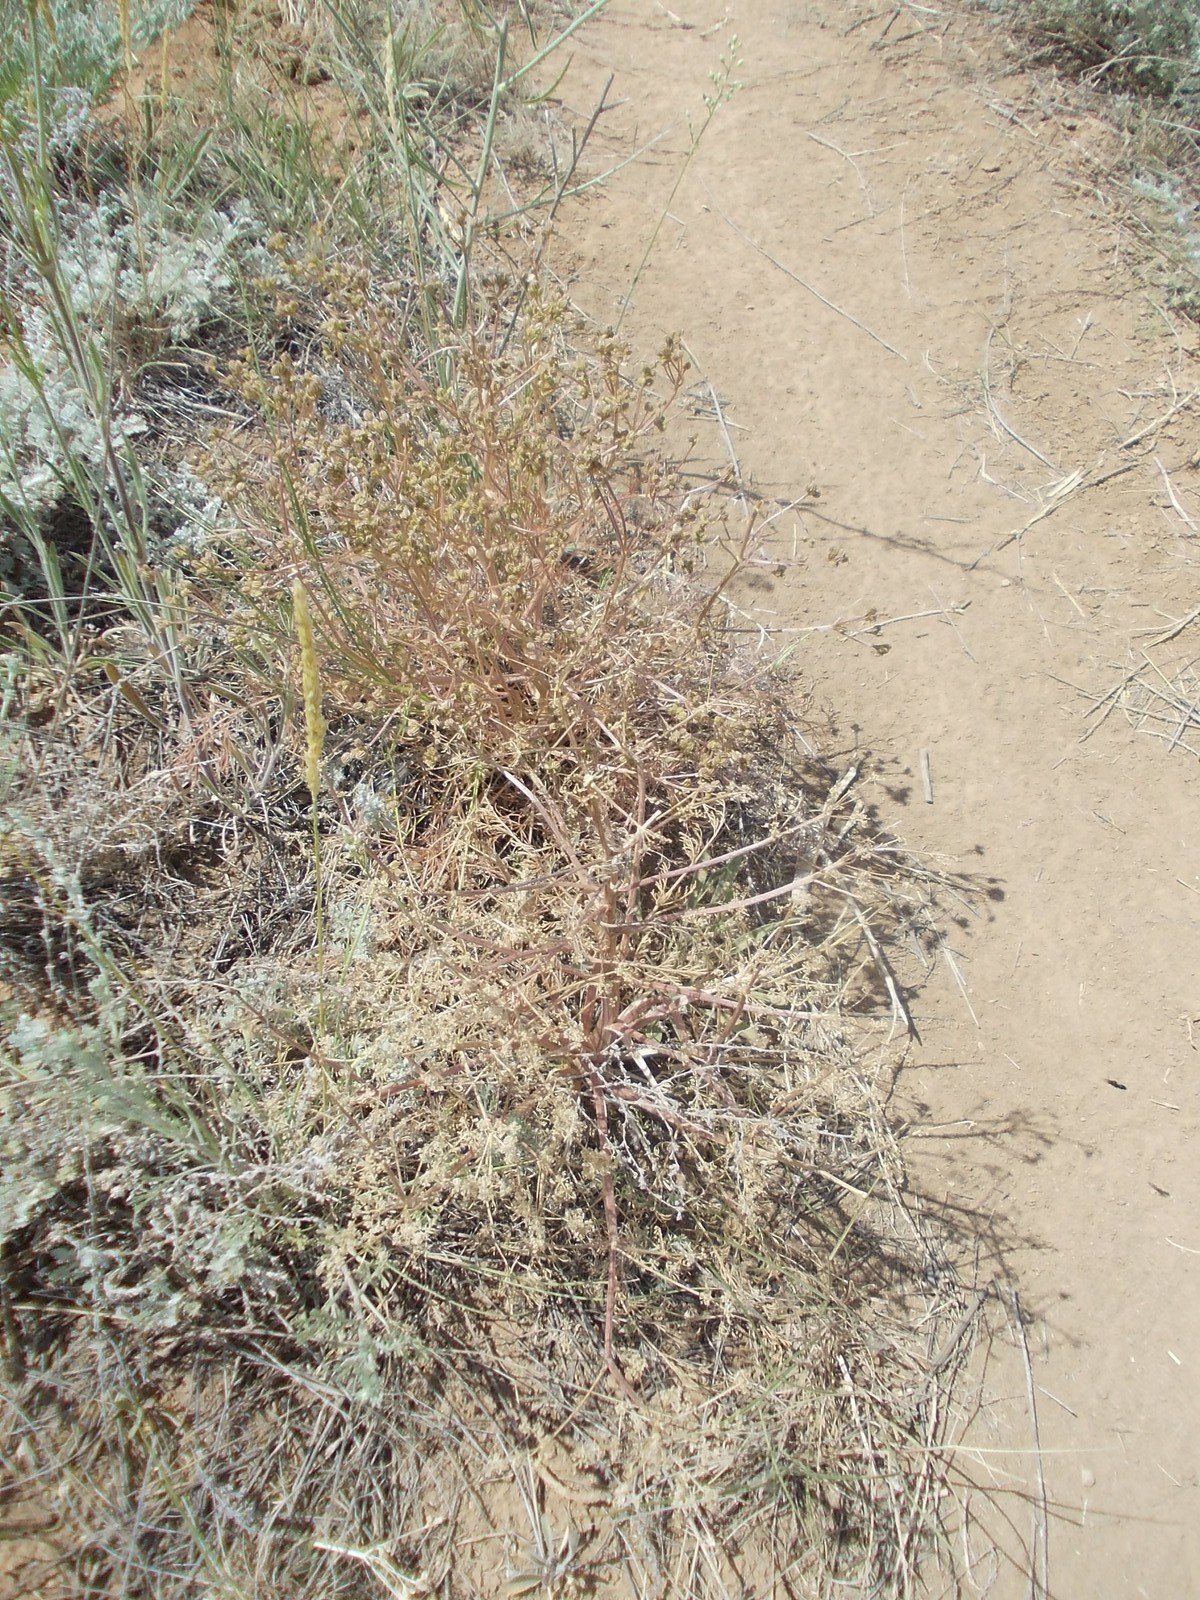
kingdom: Plantae
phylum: Tracheophyta
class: Magnoliopsida
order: Apiales
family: Apiaceae
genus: Trinia
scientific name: Trinia hispida
